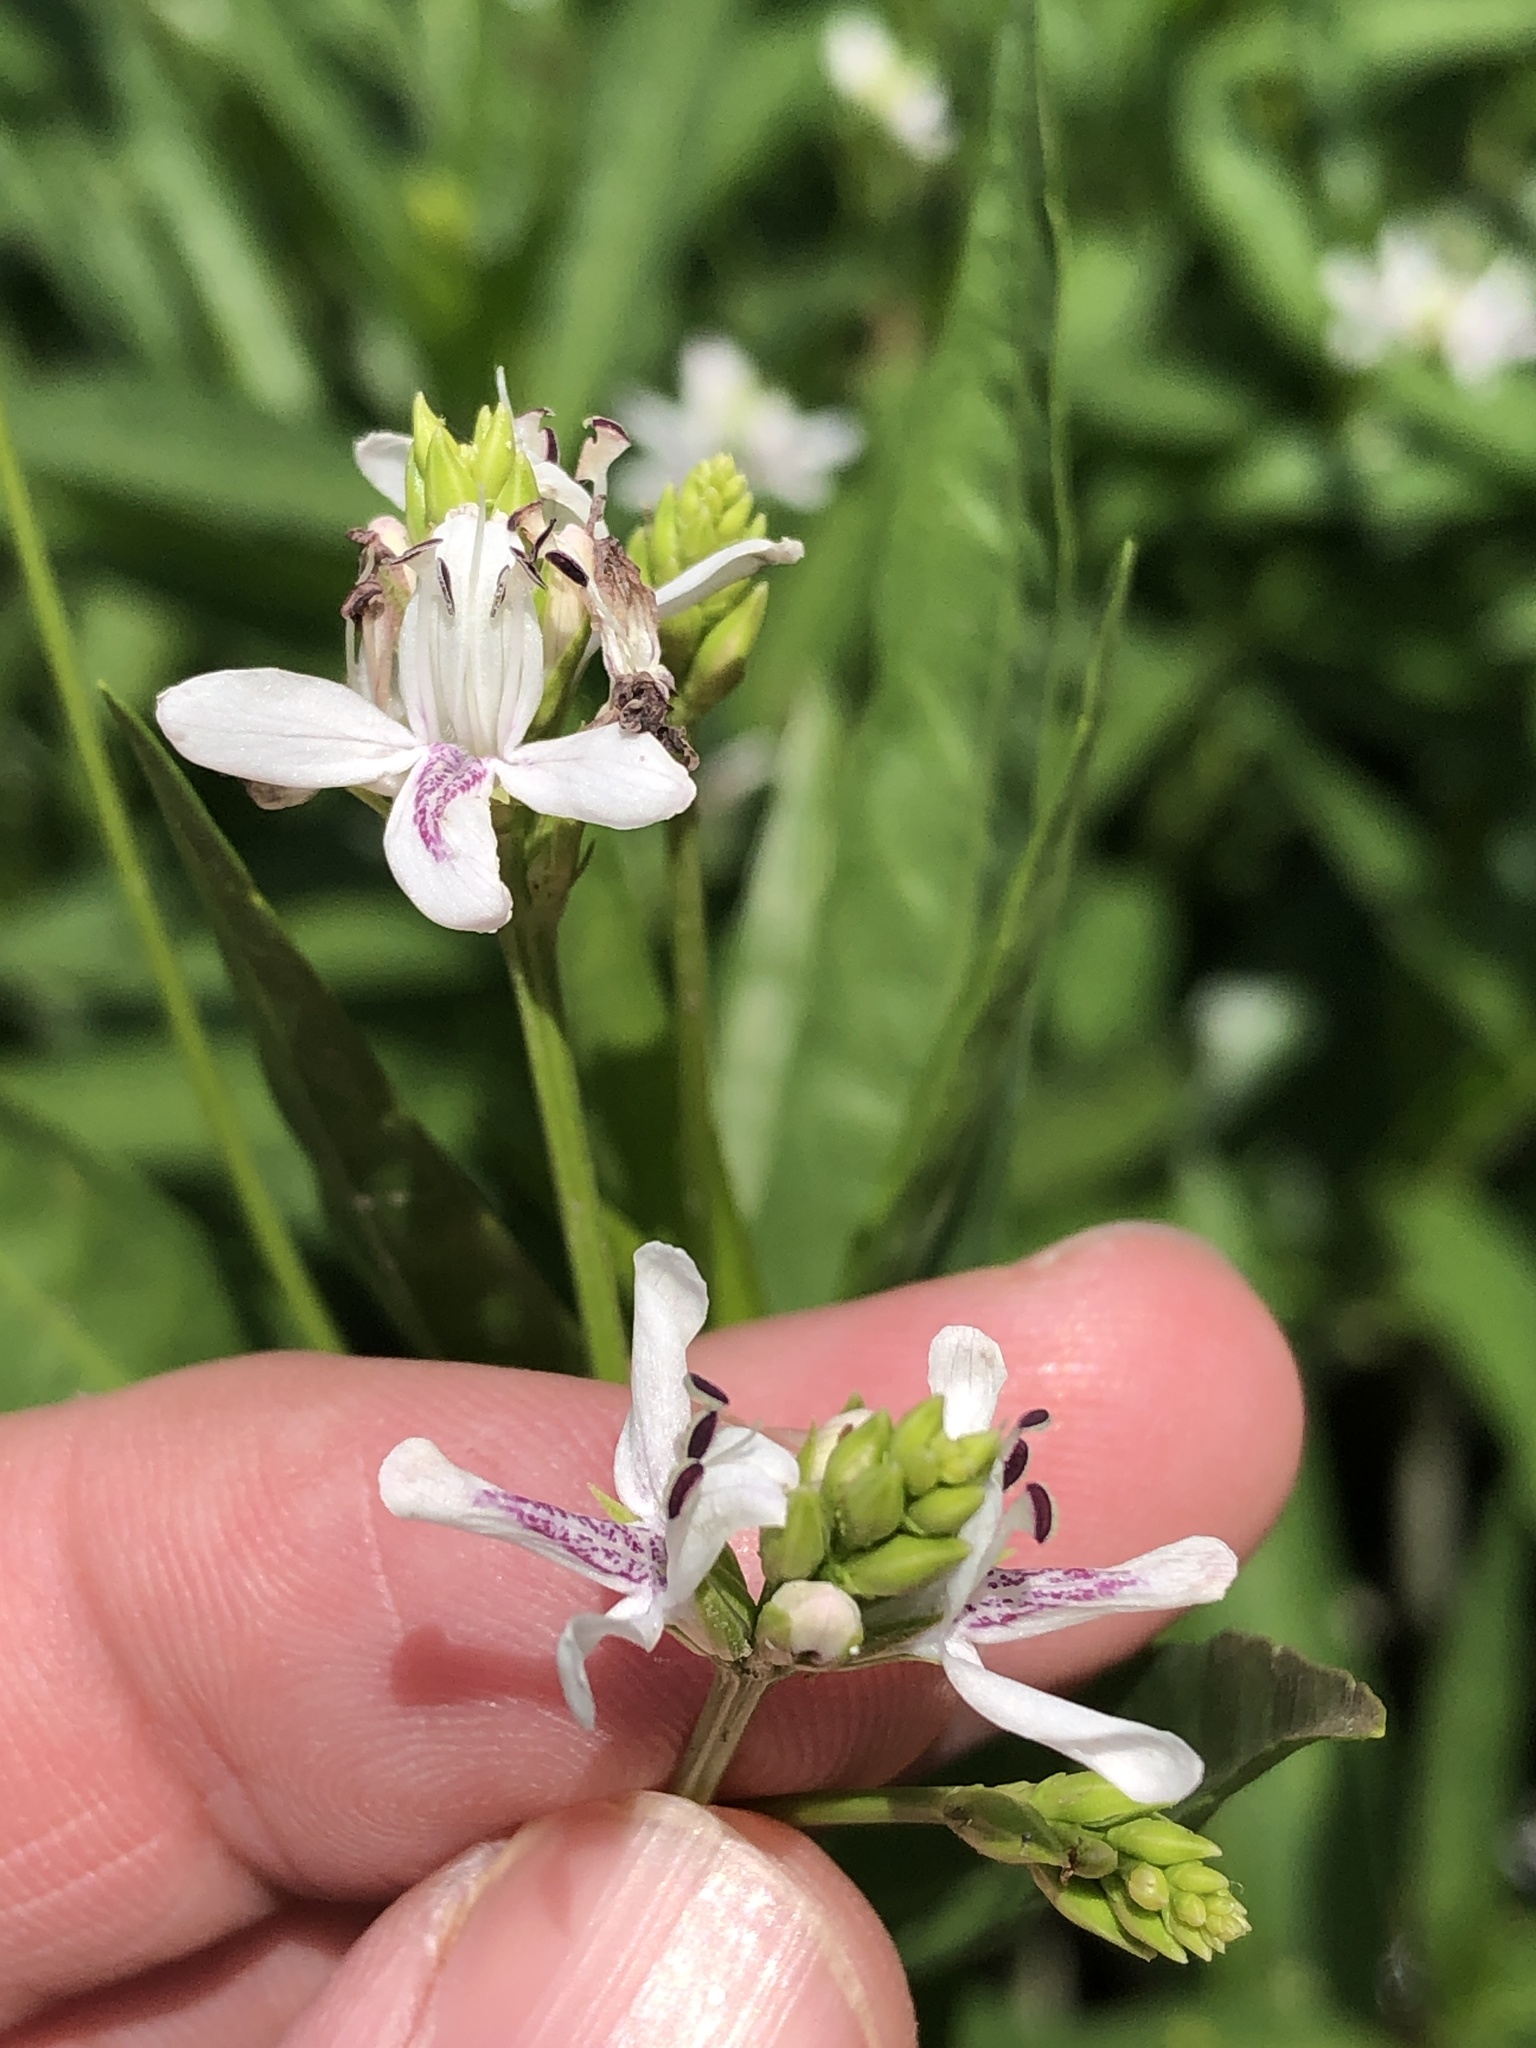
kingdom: Plantae
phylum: Tracheophyta
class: Magnoliopsida
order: Lamiales
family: Acanthaceae
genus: Dianthera
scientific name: Dianthera americana
